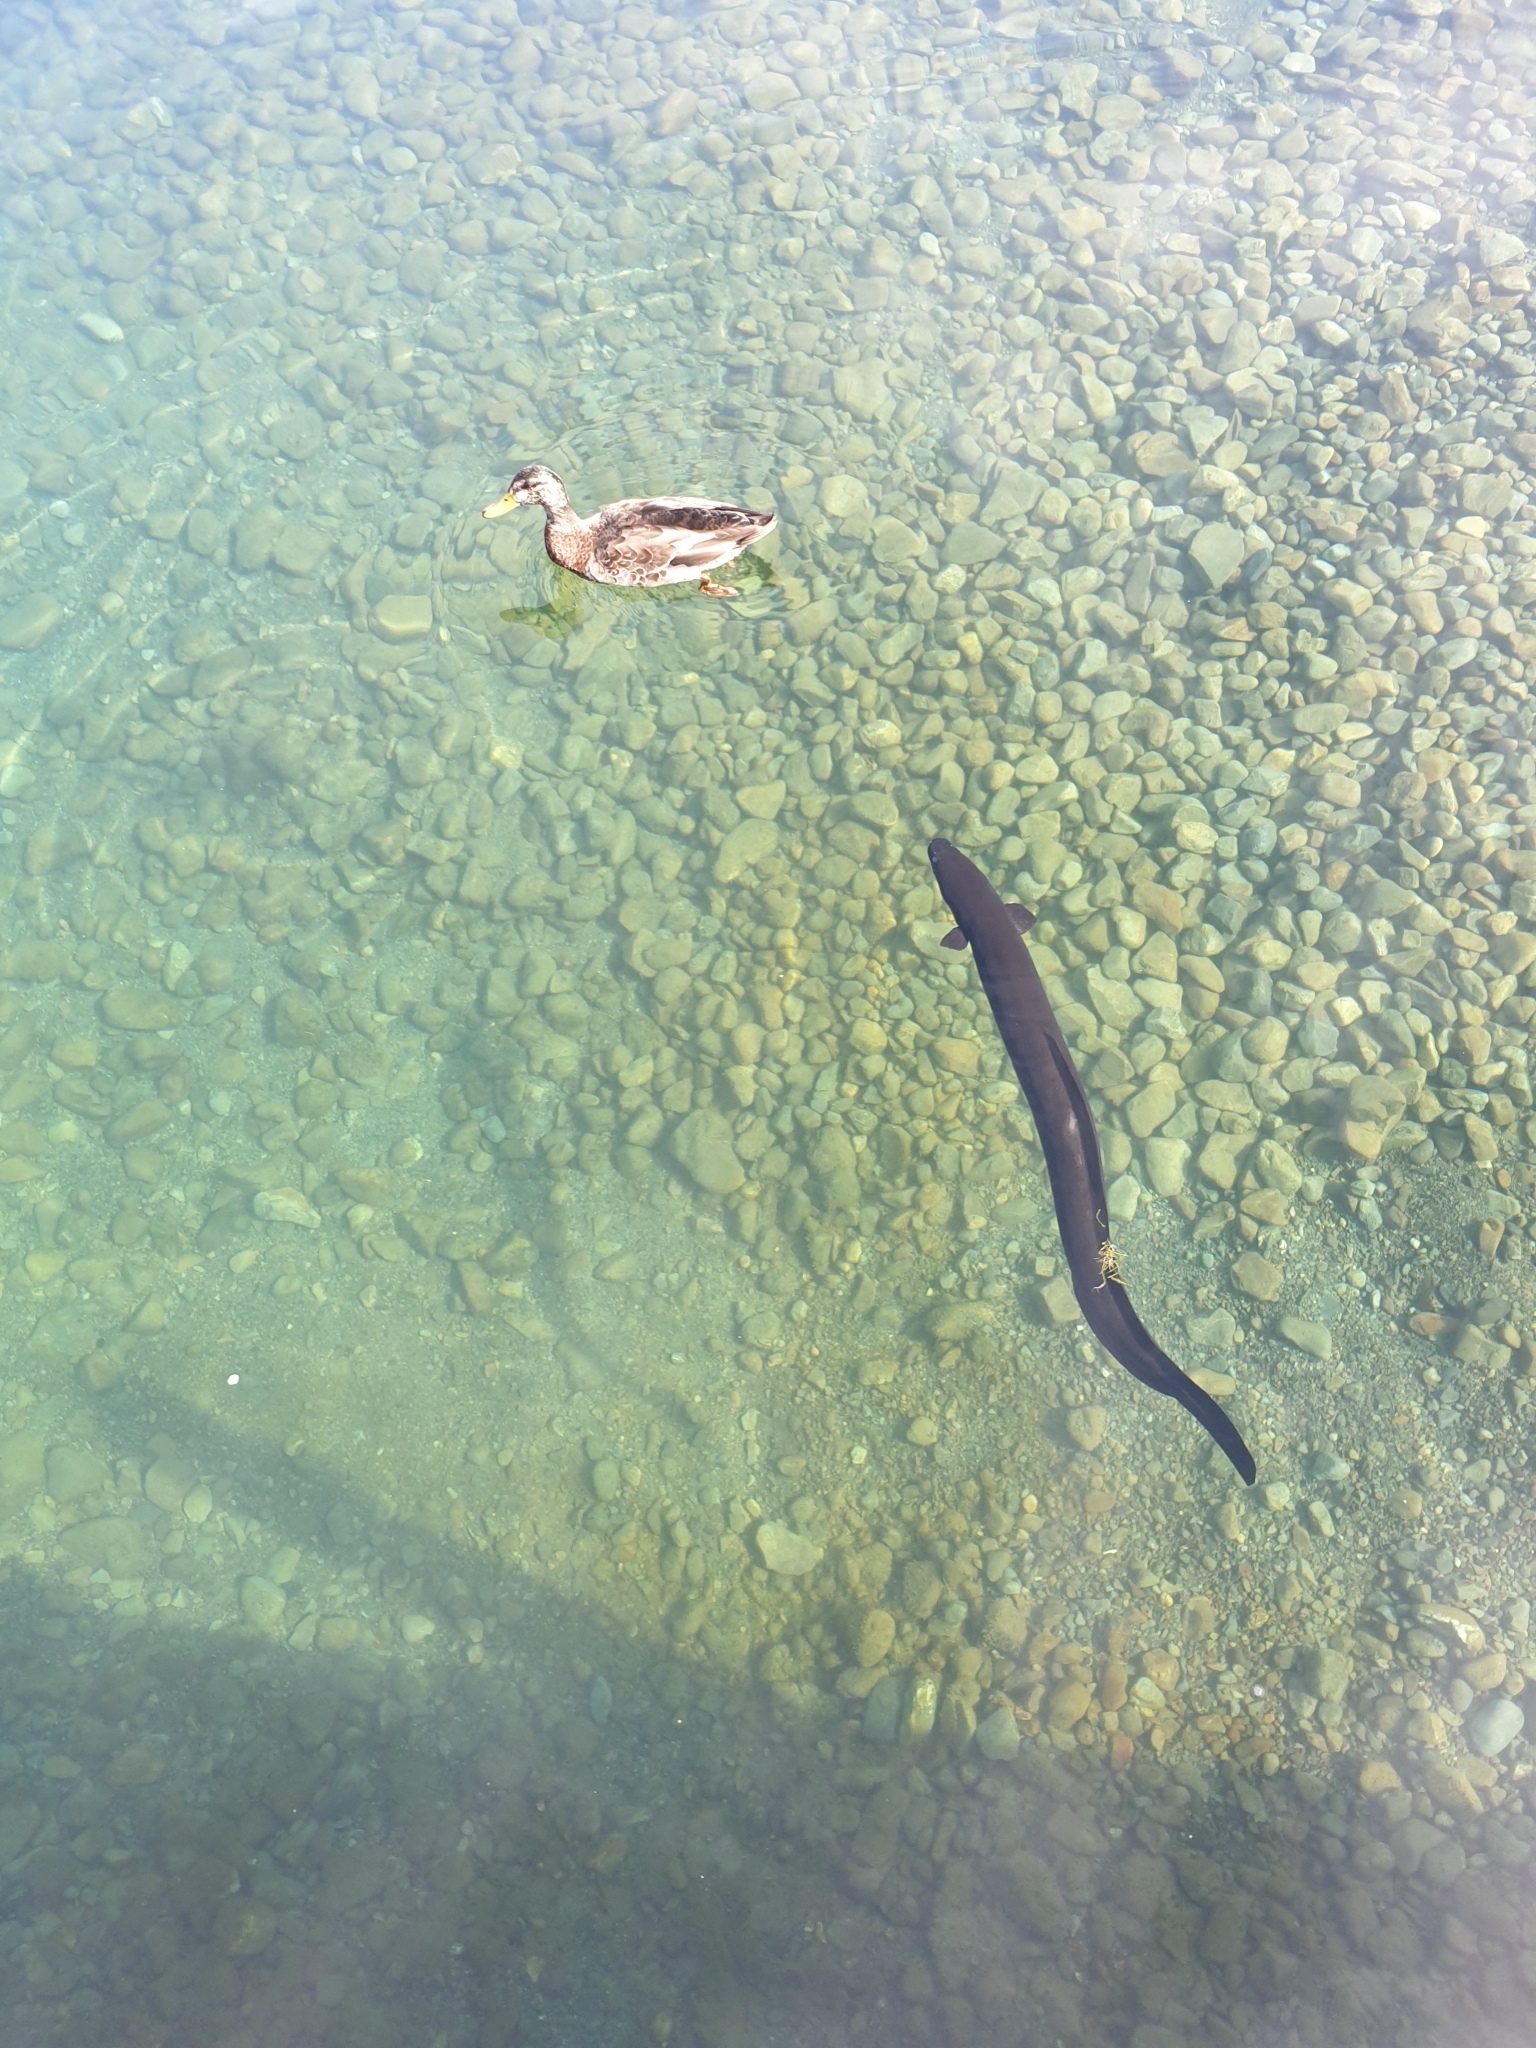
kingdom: Animalia
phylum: Chordata
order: Anguilliformes
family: Anguillidae
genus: Anguilla
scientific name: Anguilla dieffenbachii
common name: New zealand longfin eel
